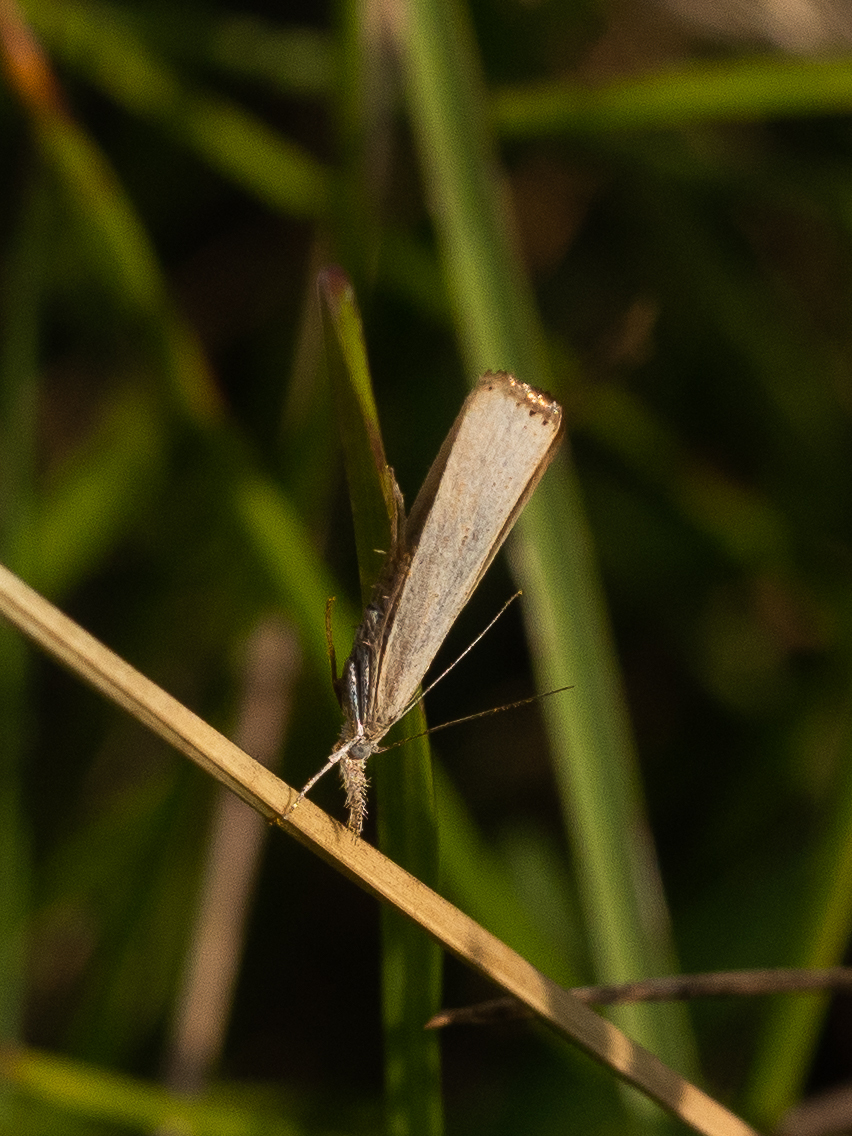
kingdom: Animalia
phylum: Arthropoda
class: Insecta
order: Lepidoptera
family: Crambidae
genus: Agriphila
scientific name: Agriphila straminella
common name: Straw grass-veneer
